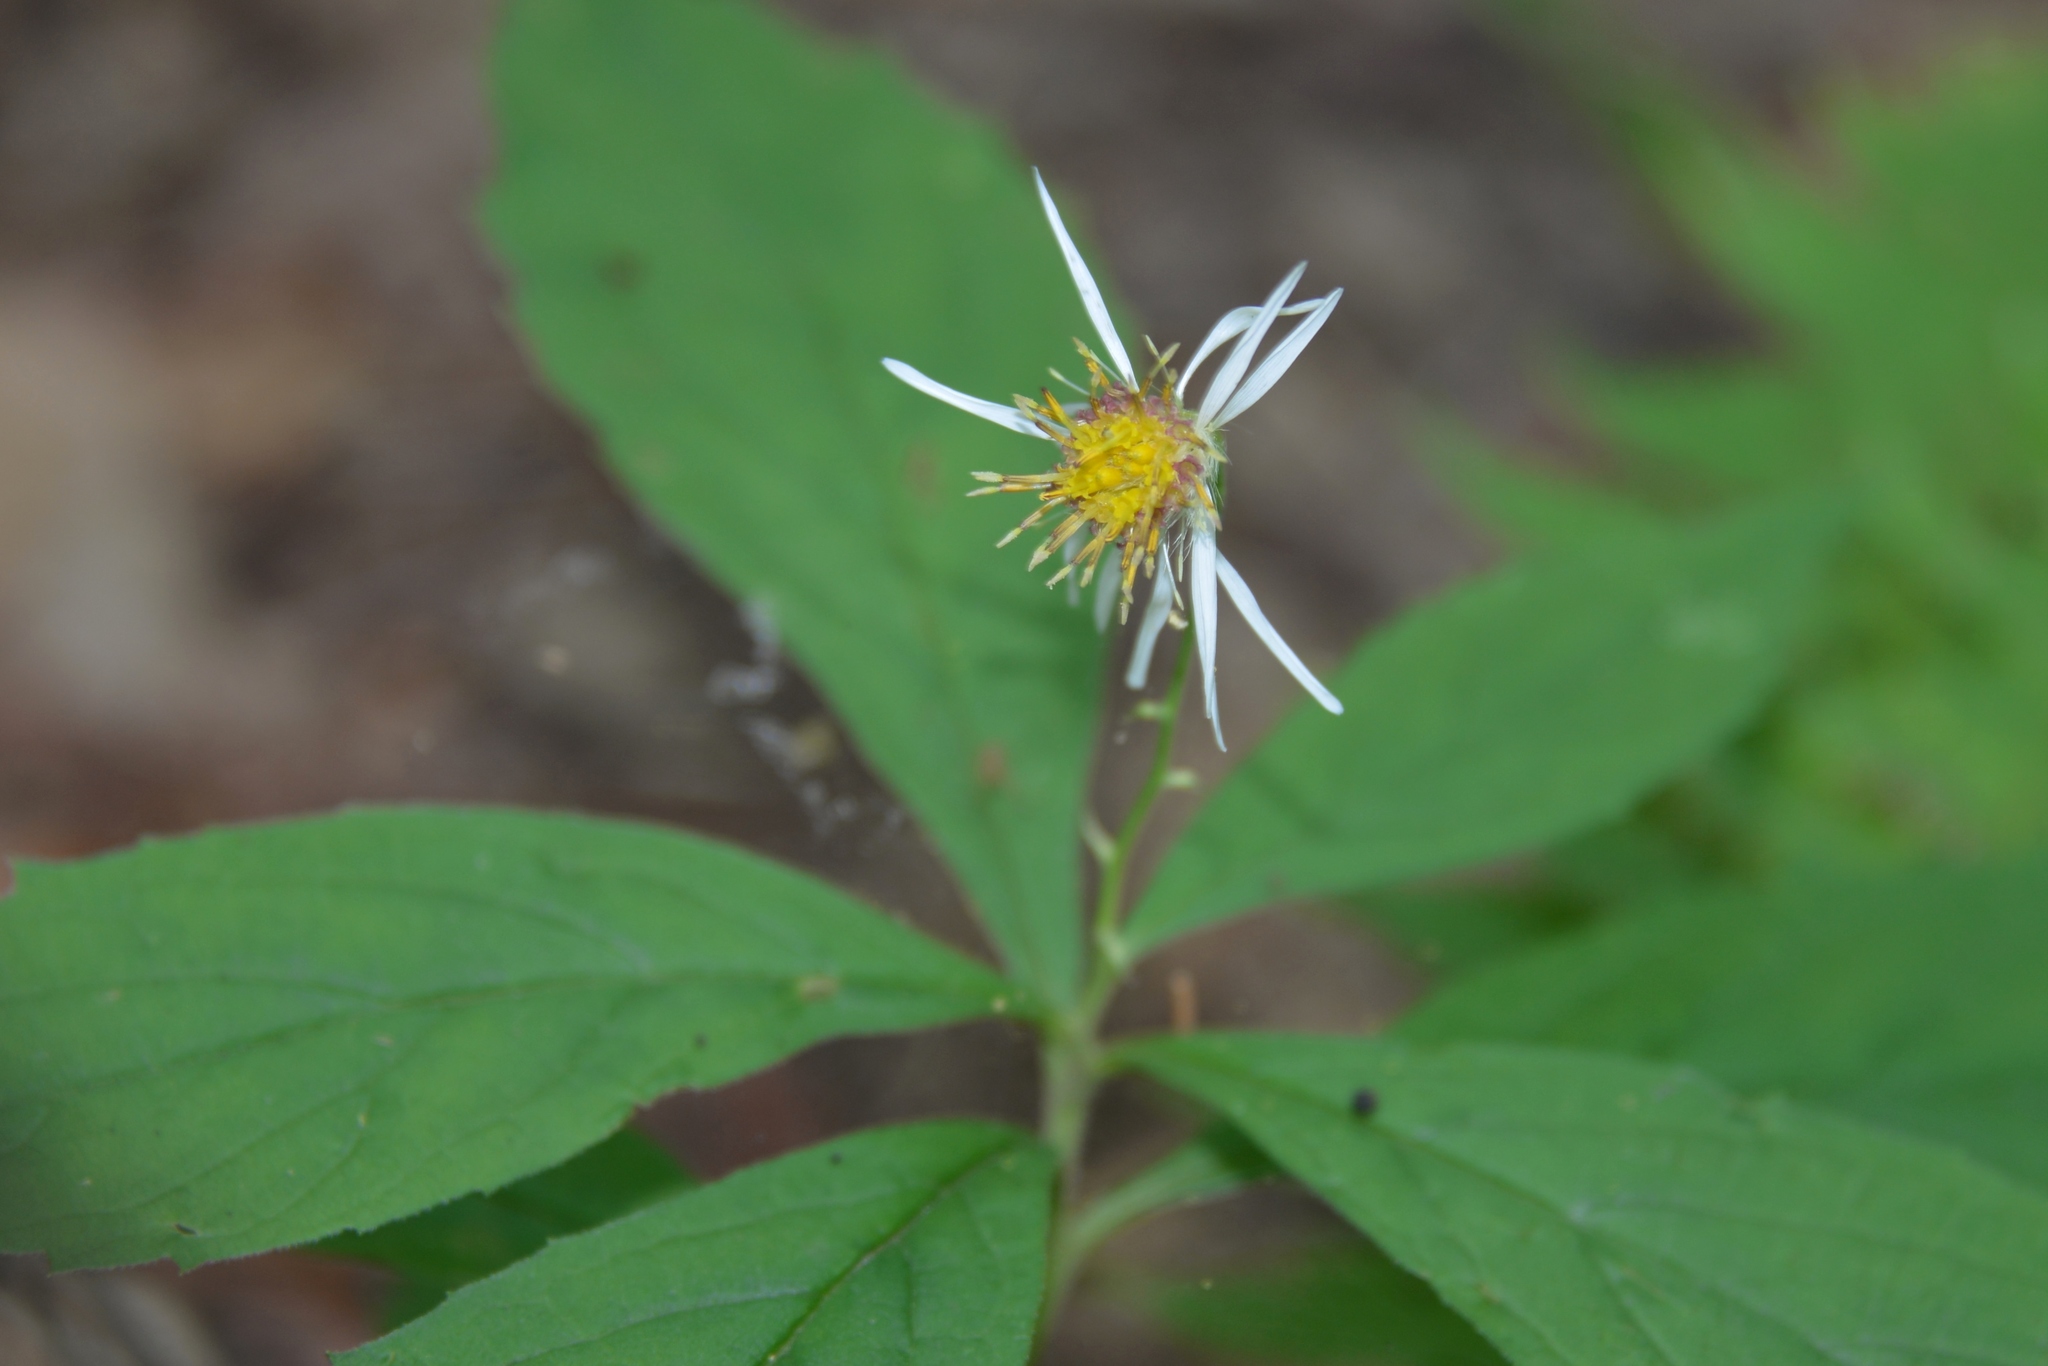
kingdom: Plantae
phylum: Tracheophyta
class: Magnoliopsida
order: Asterales
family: Asteraceae
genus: Oclemena
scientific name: Oclemena acuminata
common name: Mountain aster
